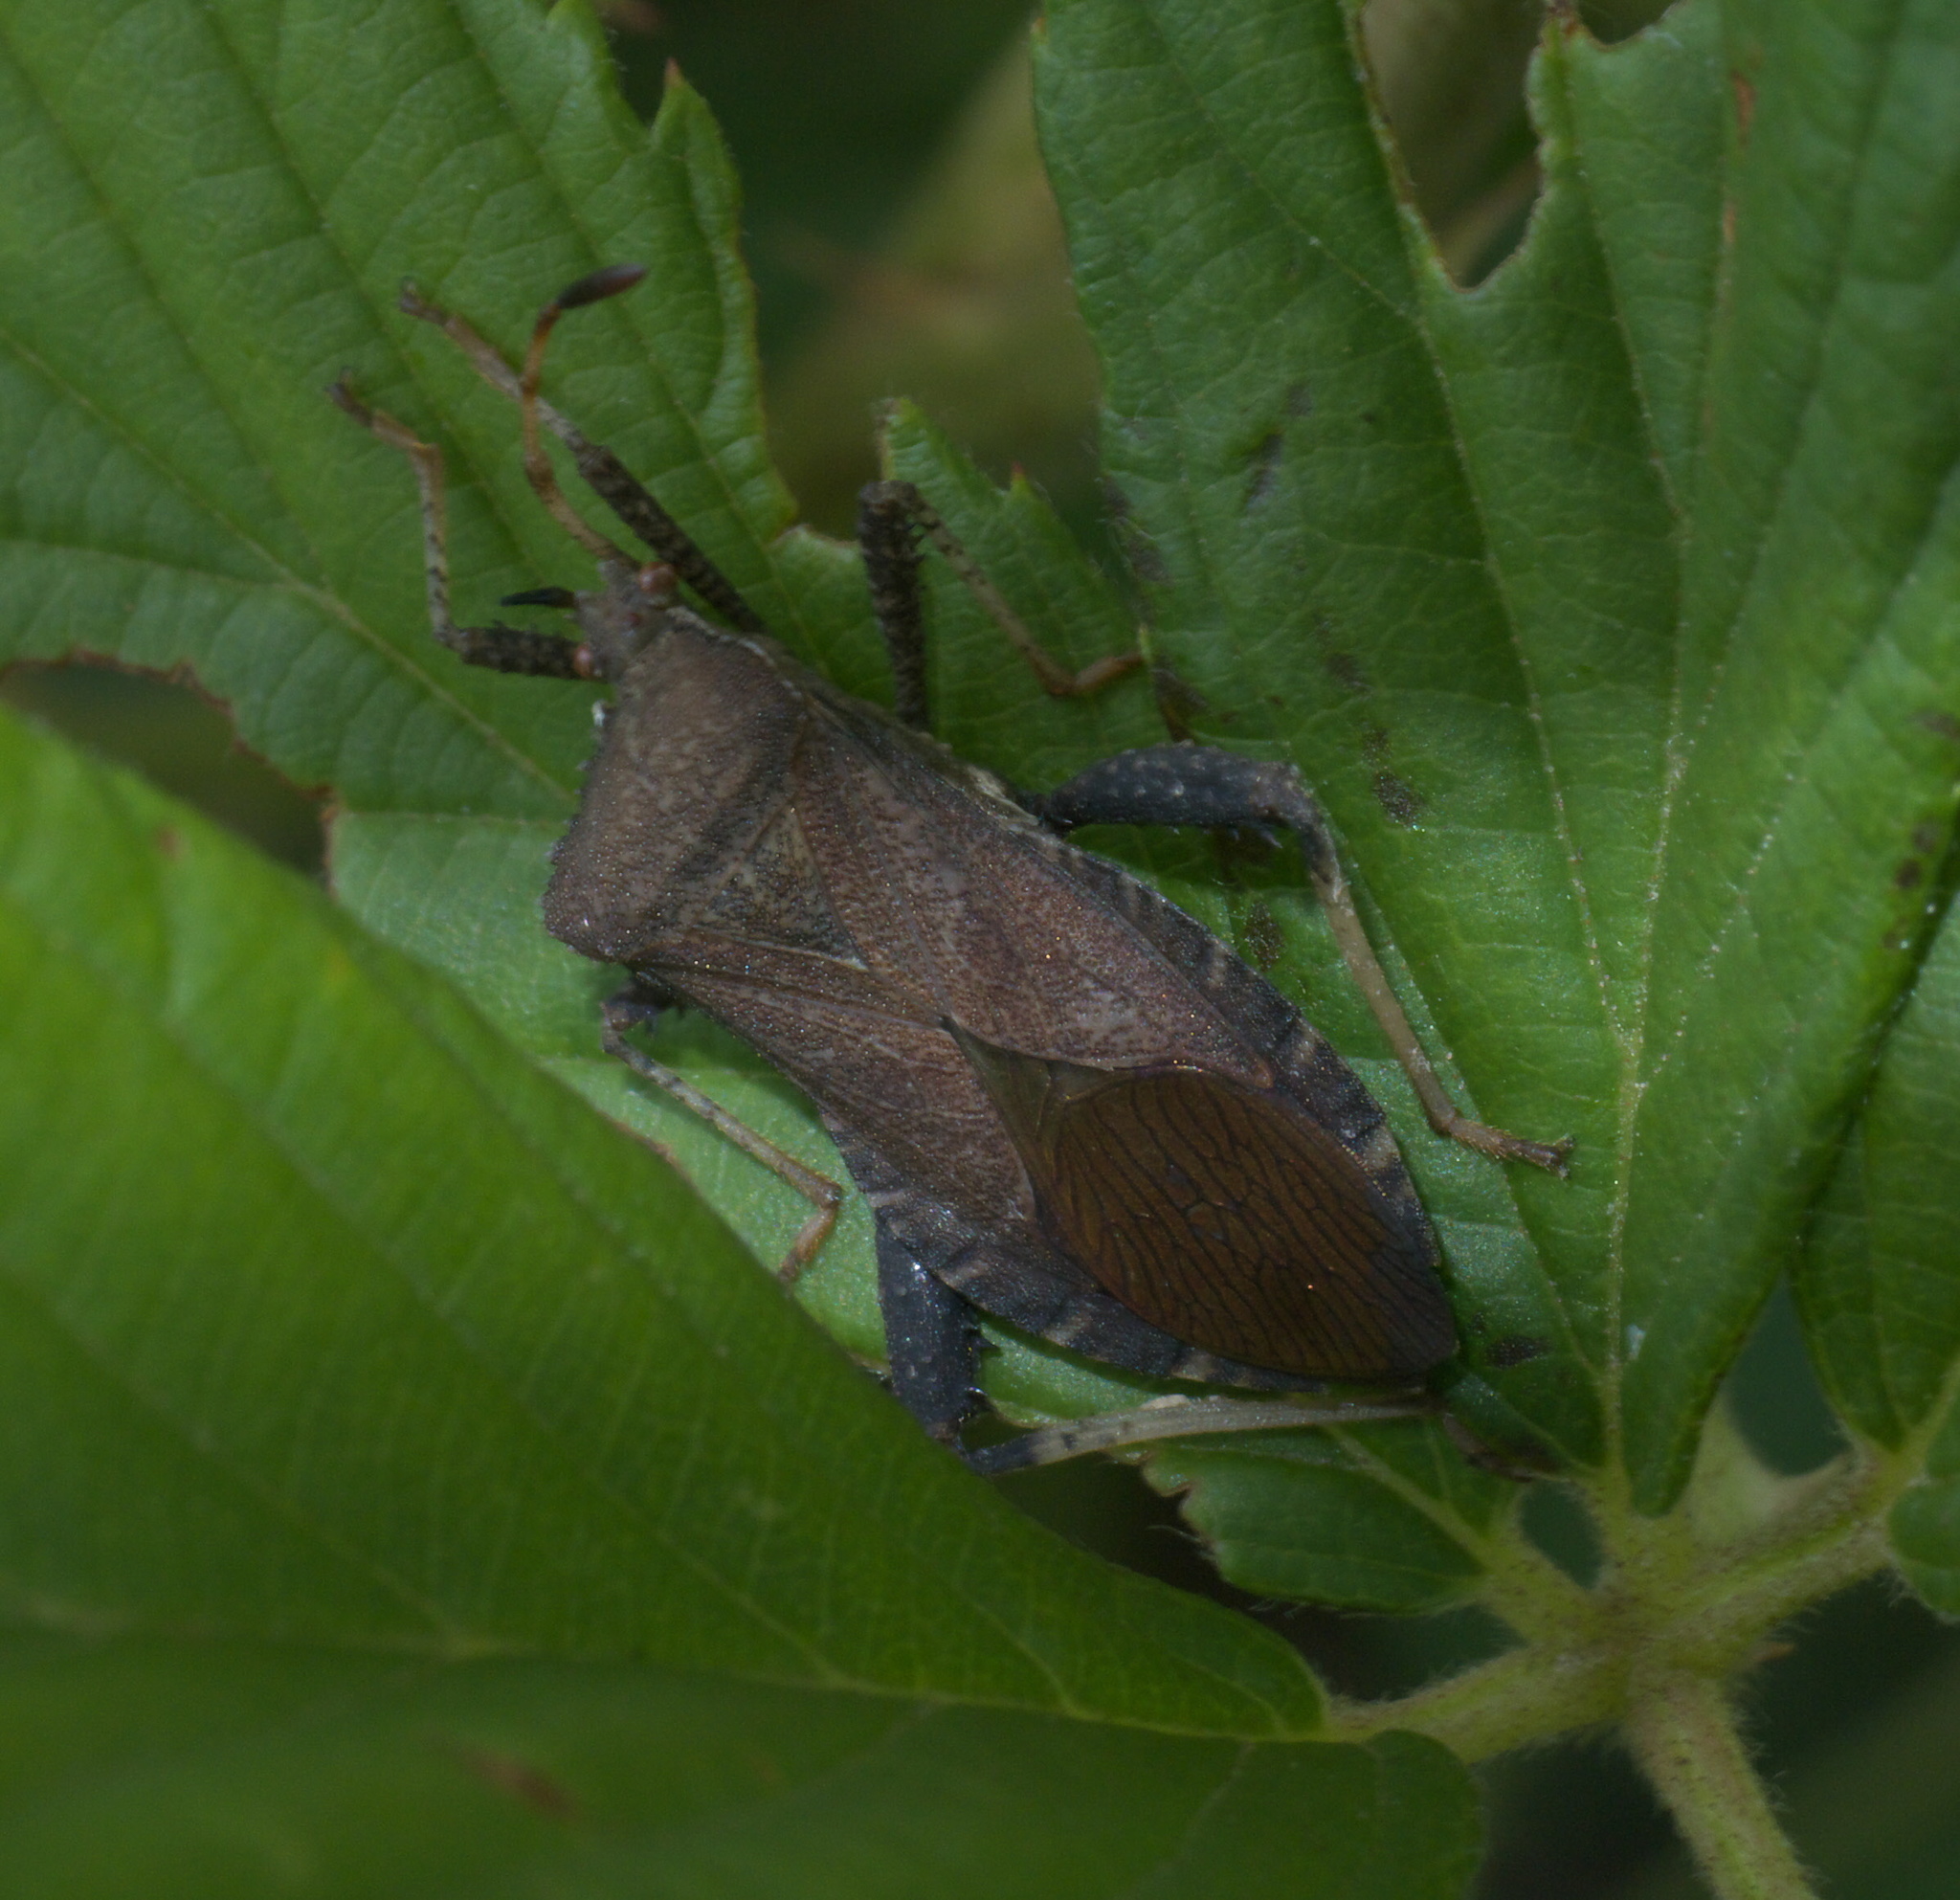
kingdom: Animalia
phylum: Arthropoda
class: Insecta
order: Hemiptera
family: Coreidae
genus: Euthochtha
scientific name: Euthochtha galeator
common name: Helmeted squash bug
